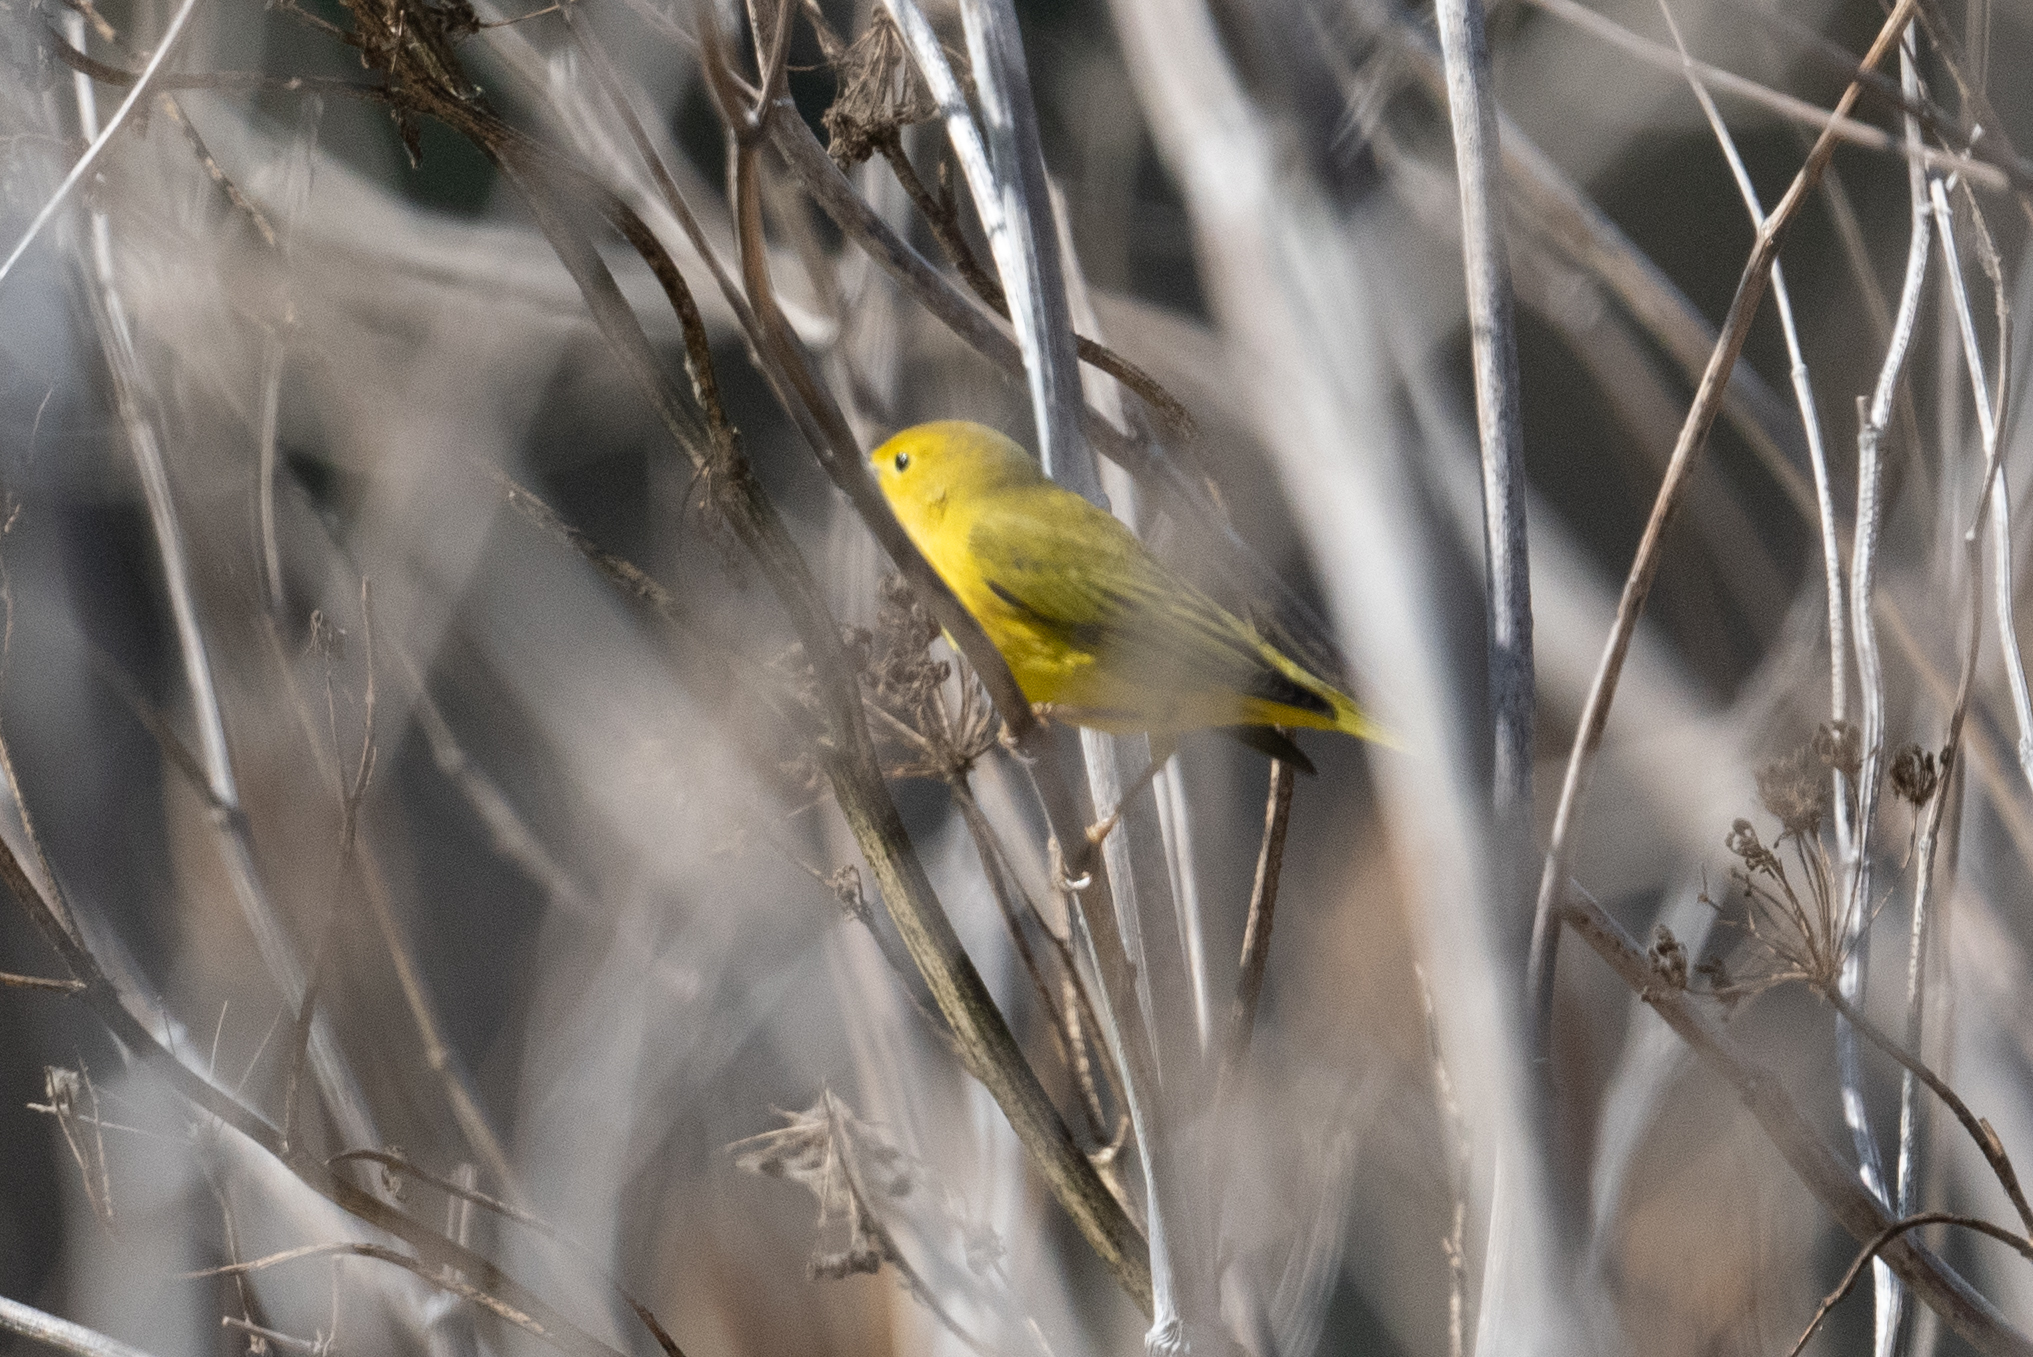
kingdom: Animalia
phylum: Chordata
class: Aves
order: Passeriformes
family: Parulidae
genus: Setophaga
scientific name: Setophaga petechia
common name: Yellow warbler
